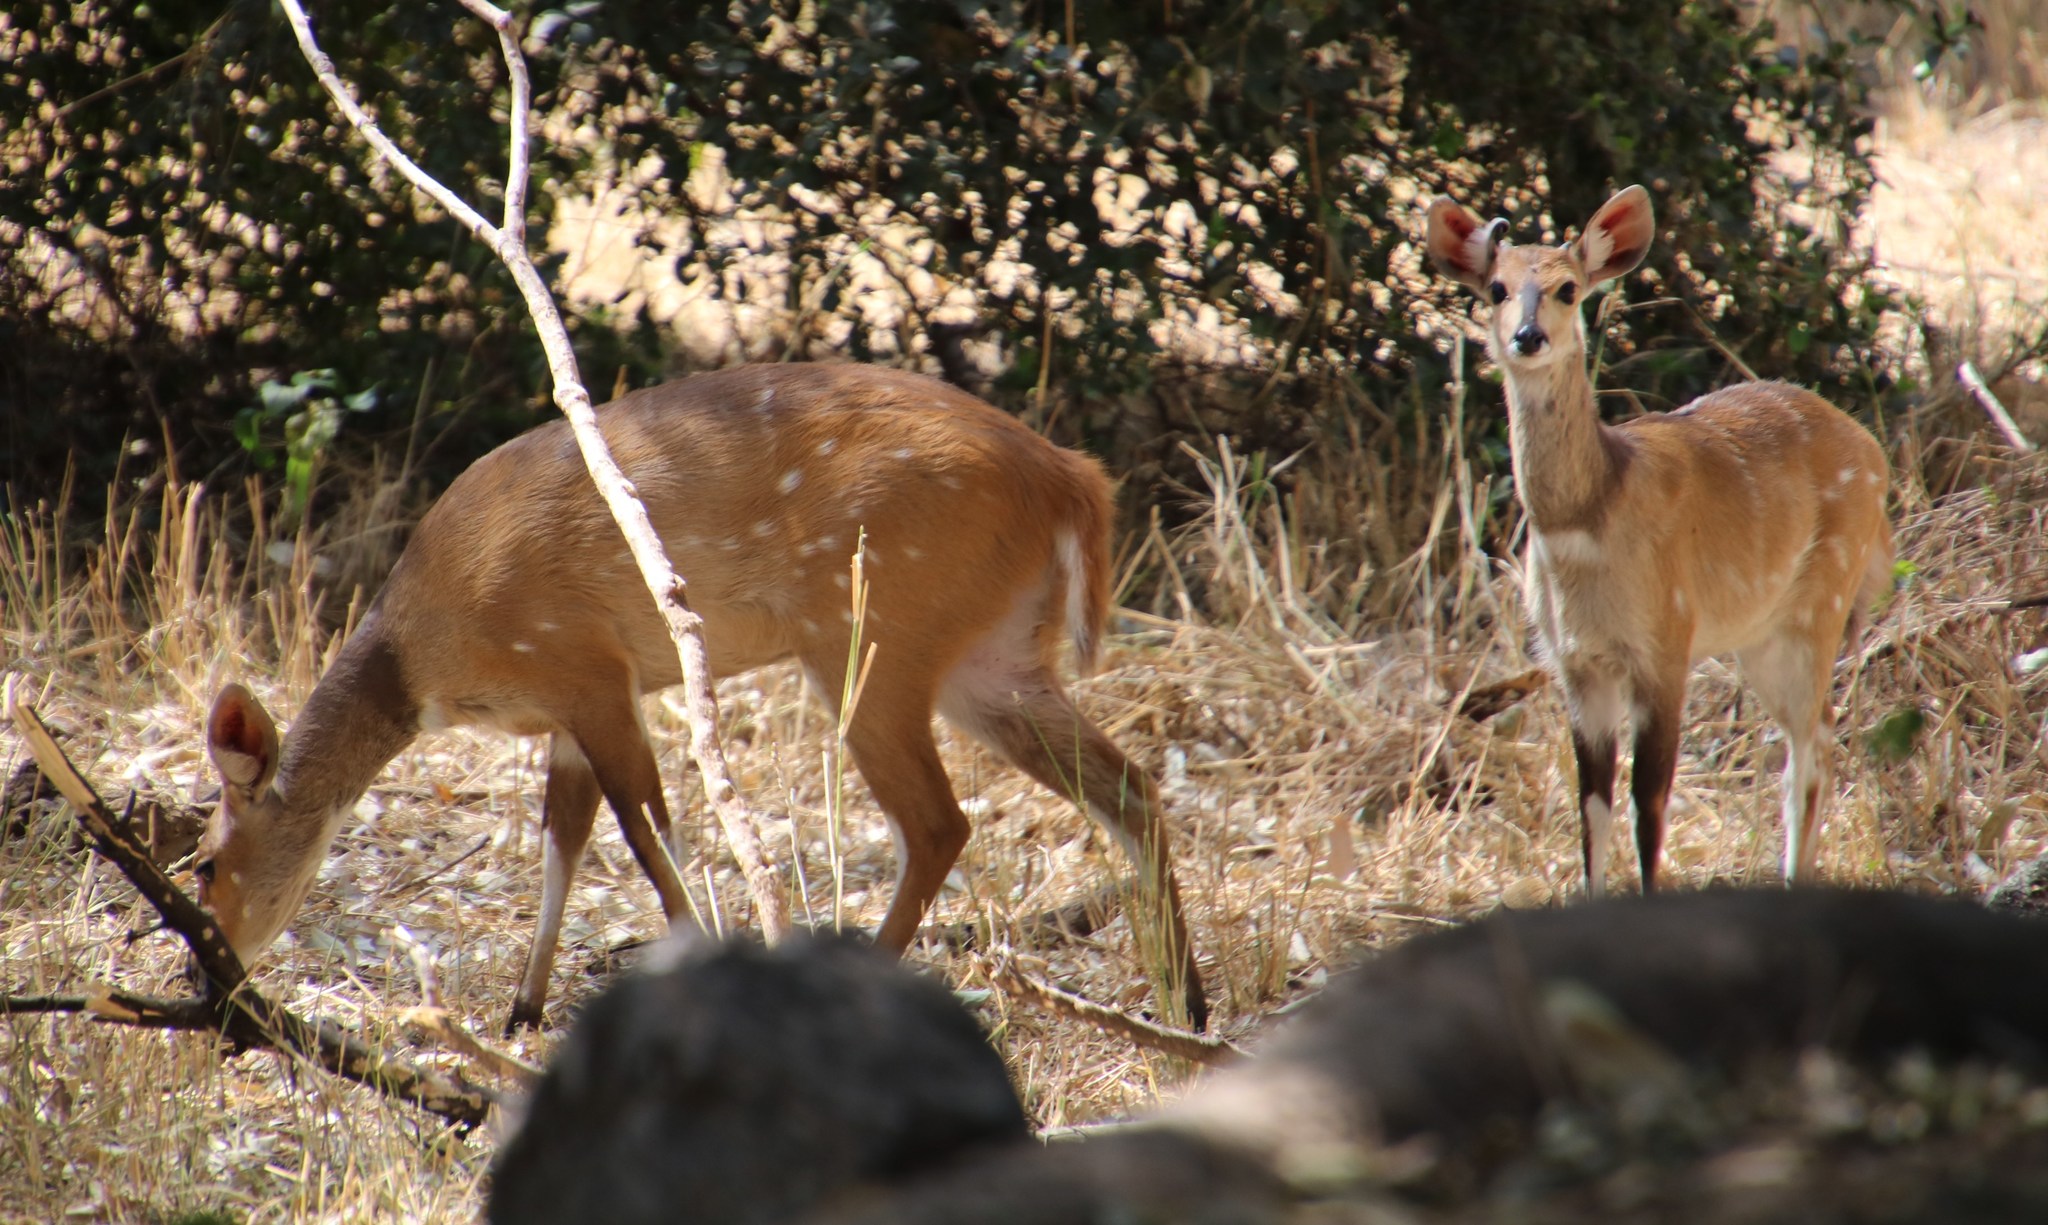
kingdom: Animalia
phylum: Chordata
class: Mammalia
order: Artiodactyla
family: Bovidae
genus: Tragelaphus
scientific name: Tragelaphus scriptus
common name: Bushbuck
